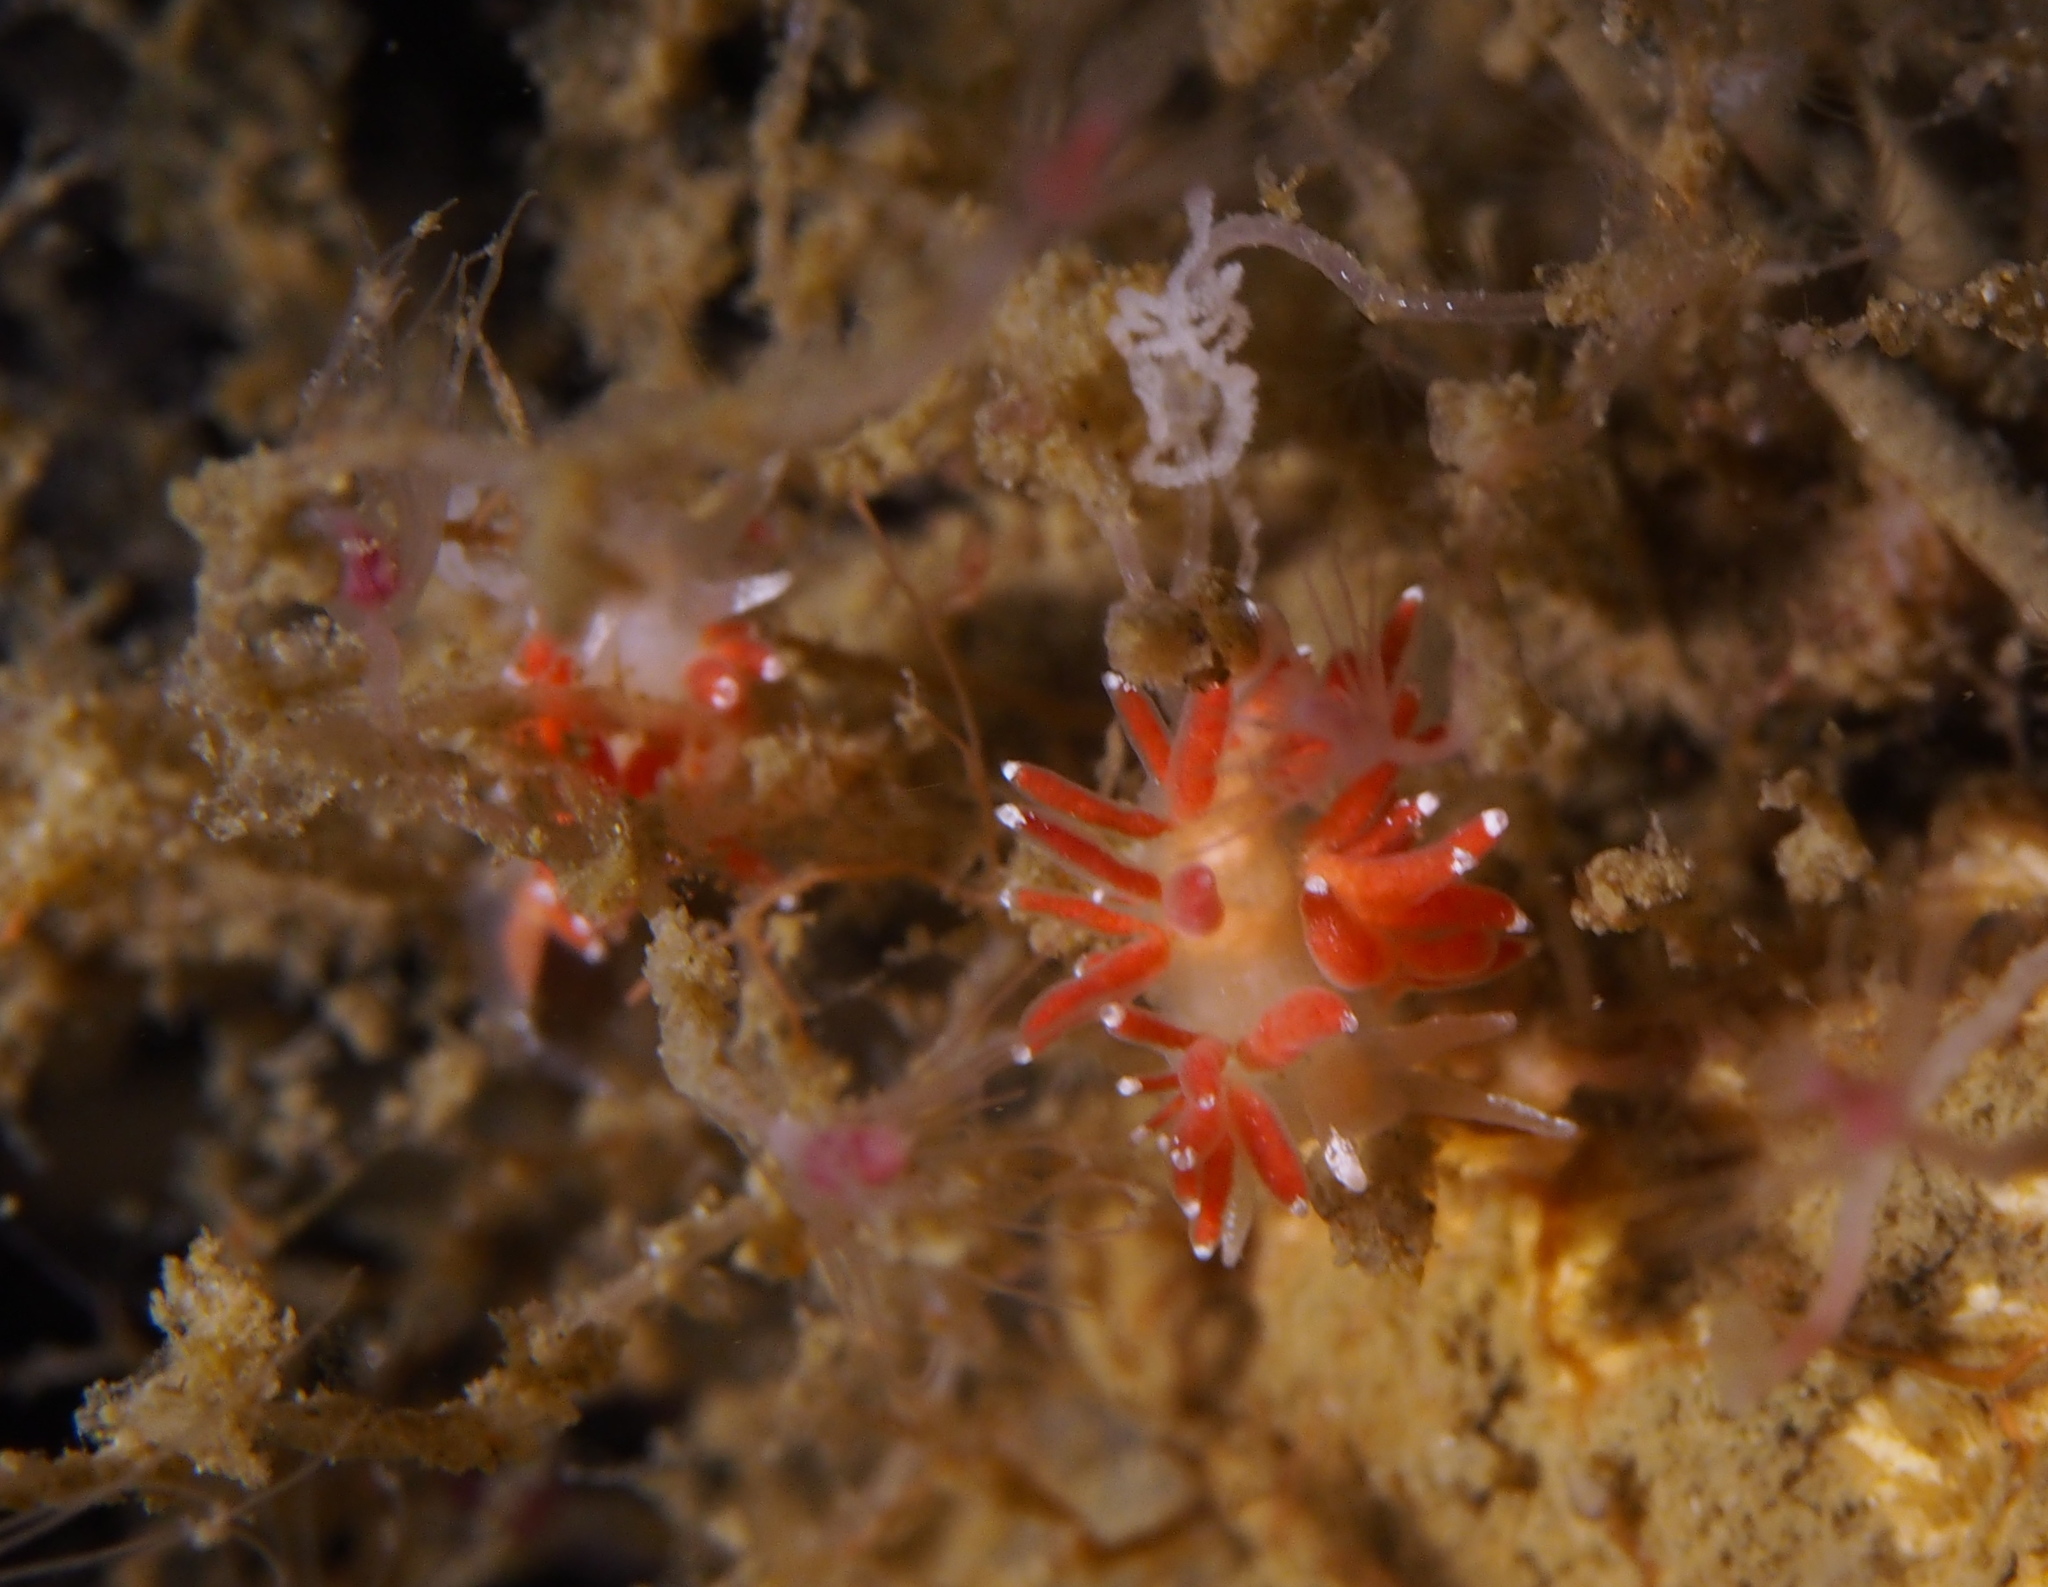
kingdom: Animalia
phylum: Mollusca
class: Gastropoda
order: Nudibranchia
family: Coryphellidae
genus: Coryphella
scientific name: Coryphella gracilis
